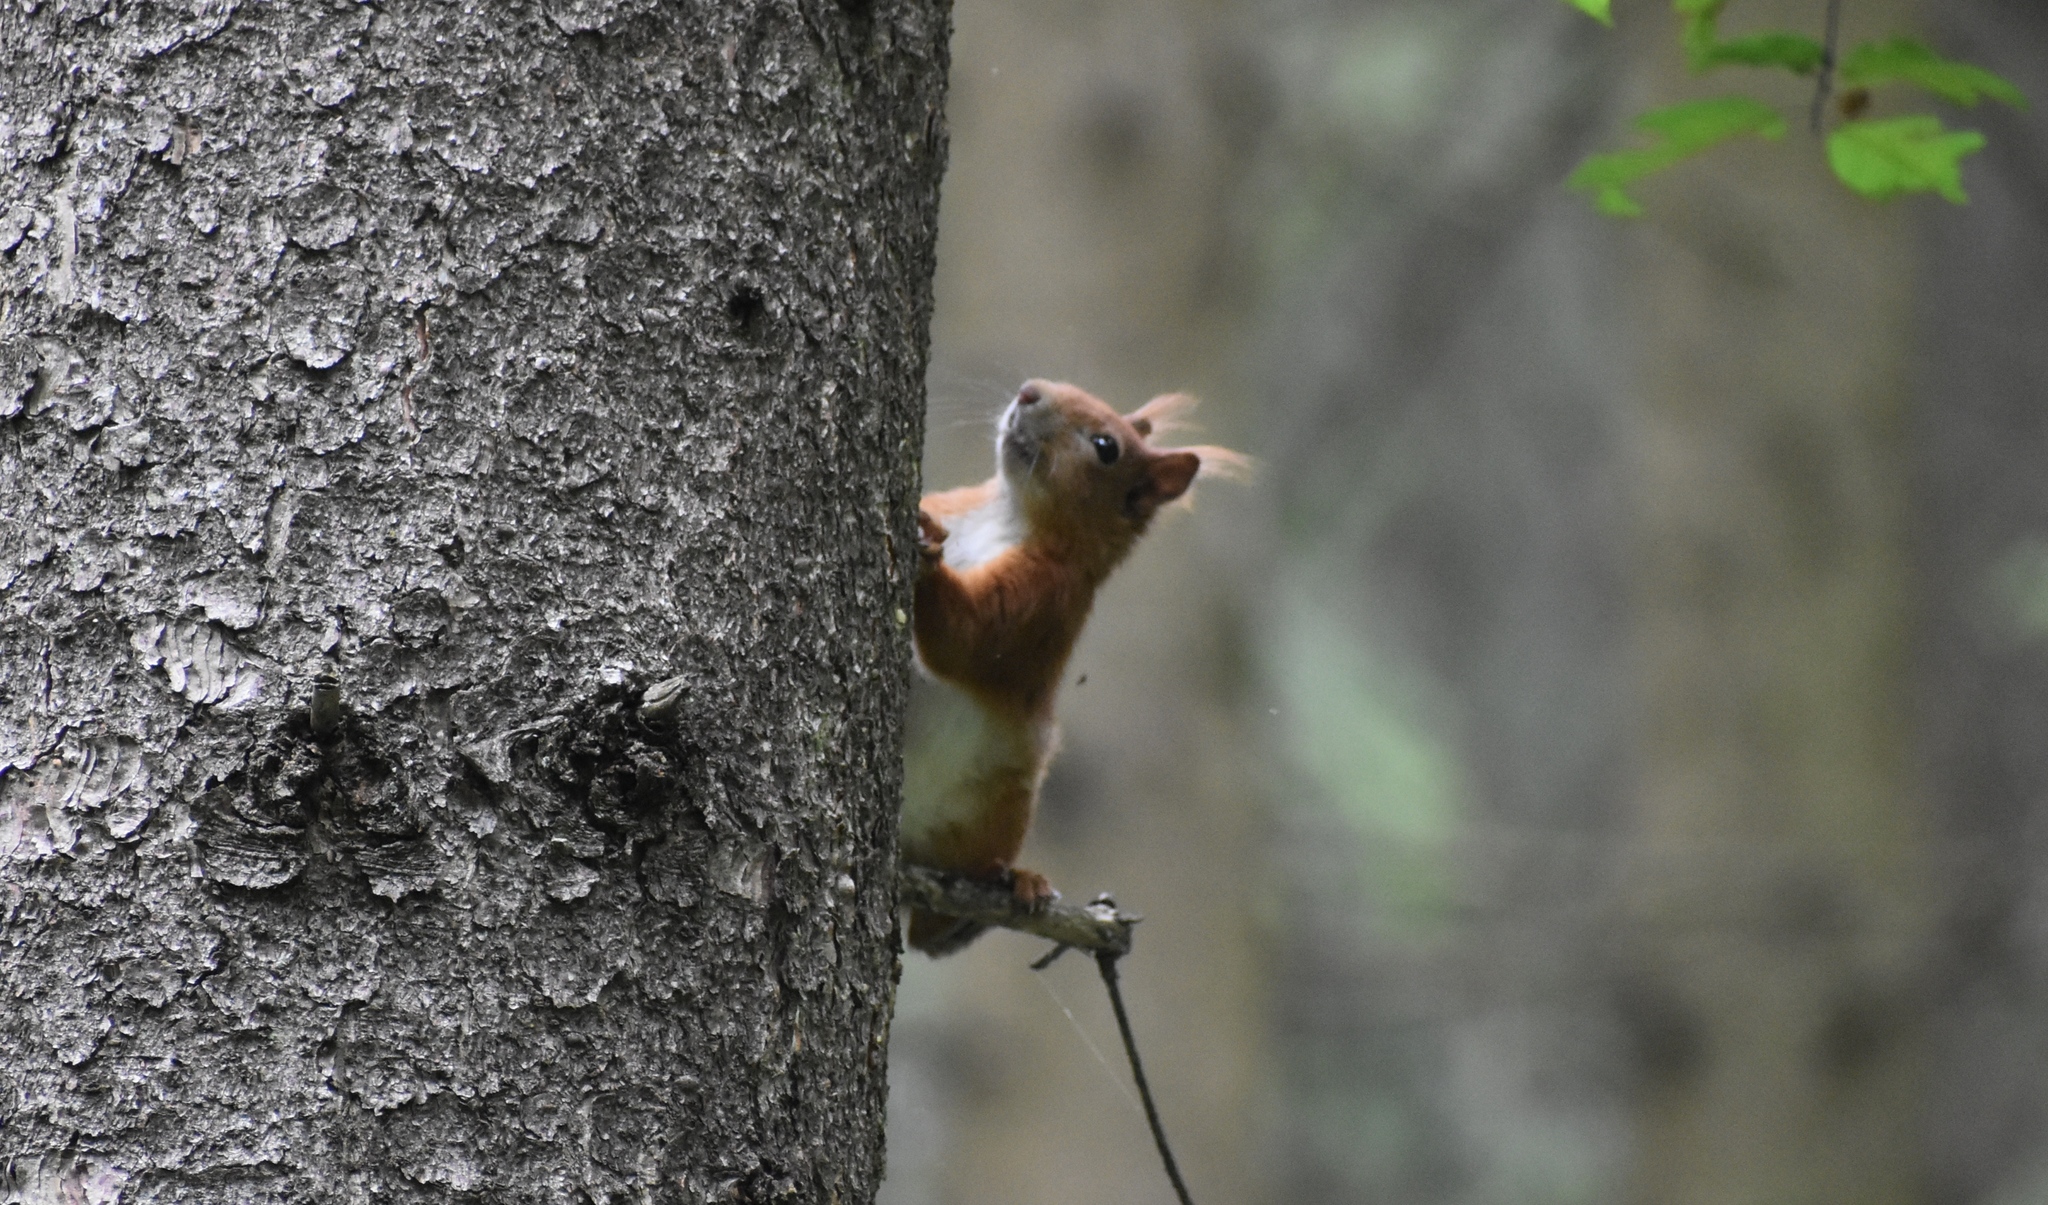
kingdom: Animalia
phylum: Chordata
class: Mammalia
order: Rodentia
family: Sciuridae
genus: Sciurus
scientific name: Sciurus vulgaris
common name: Eurasian red squirrel
